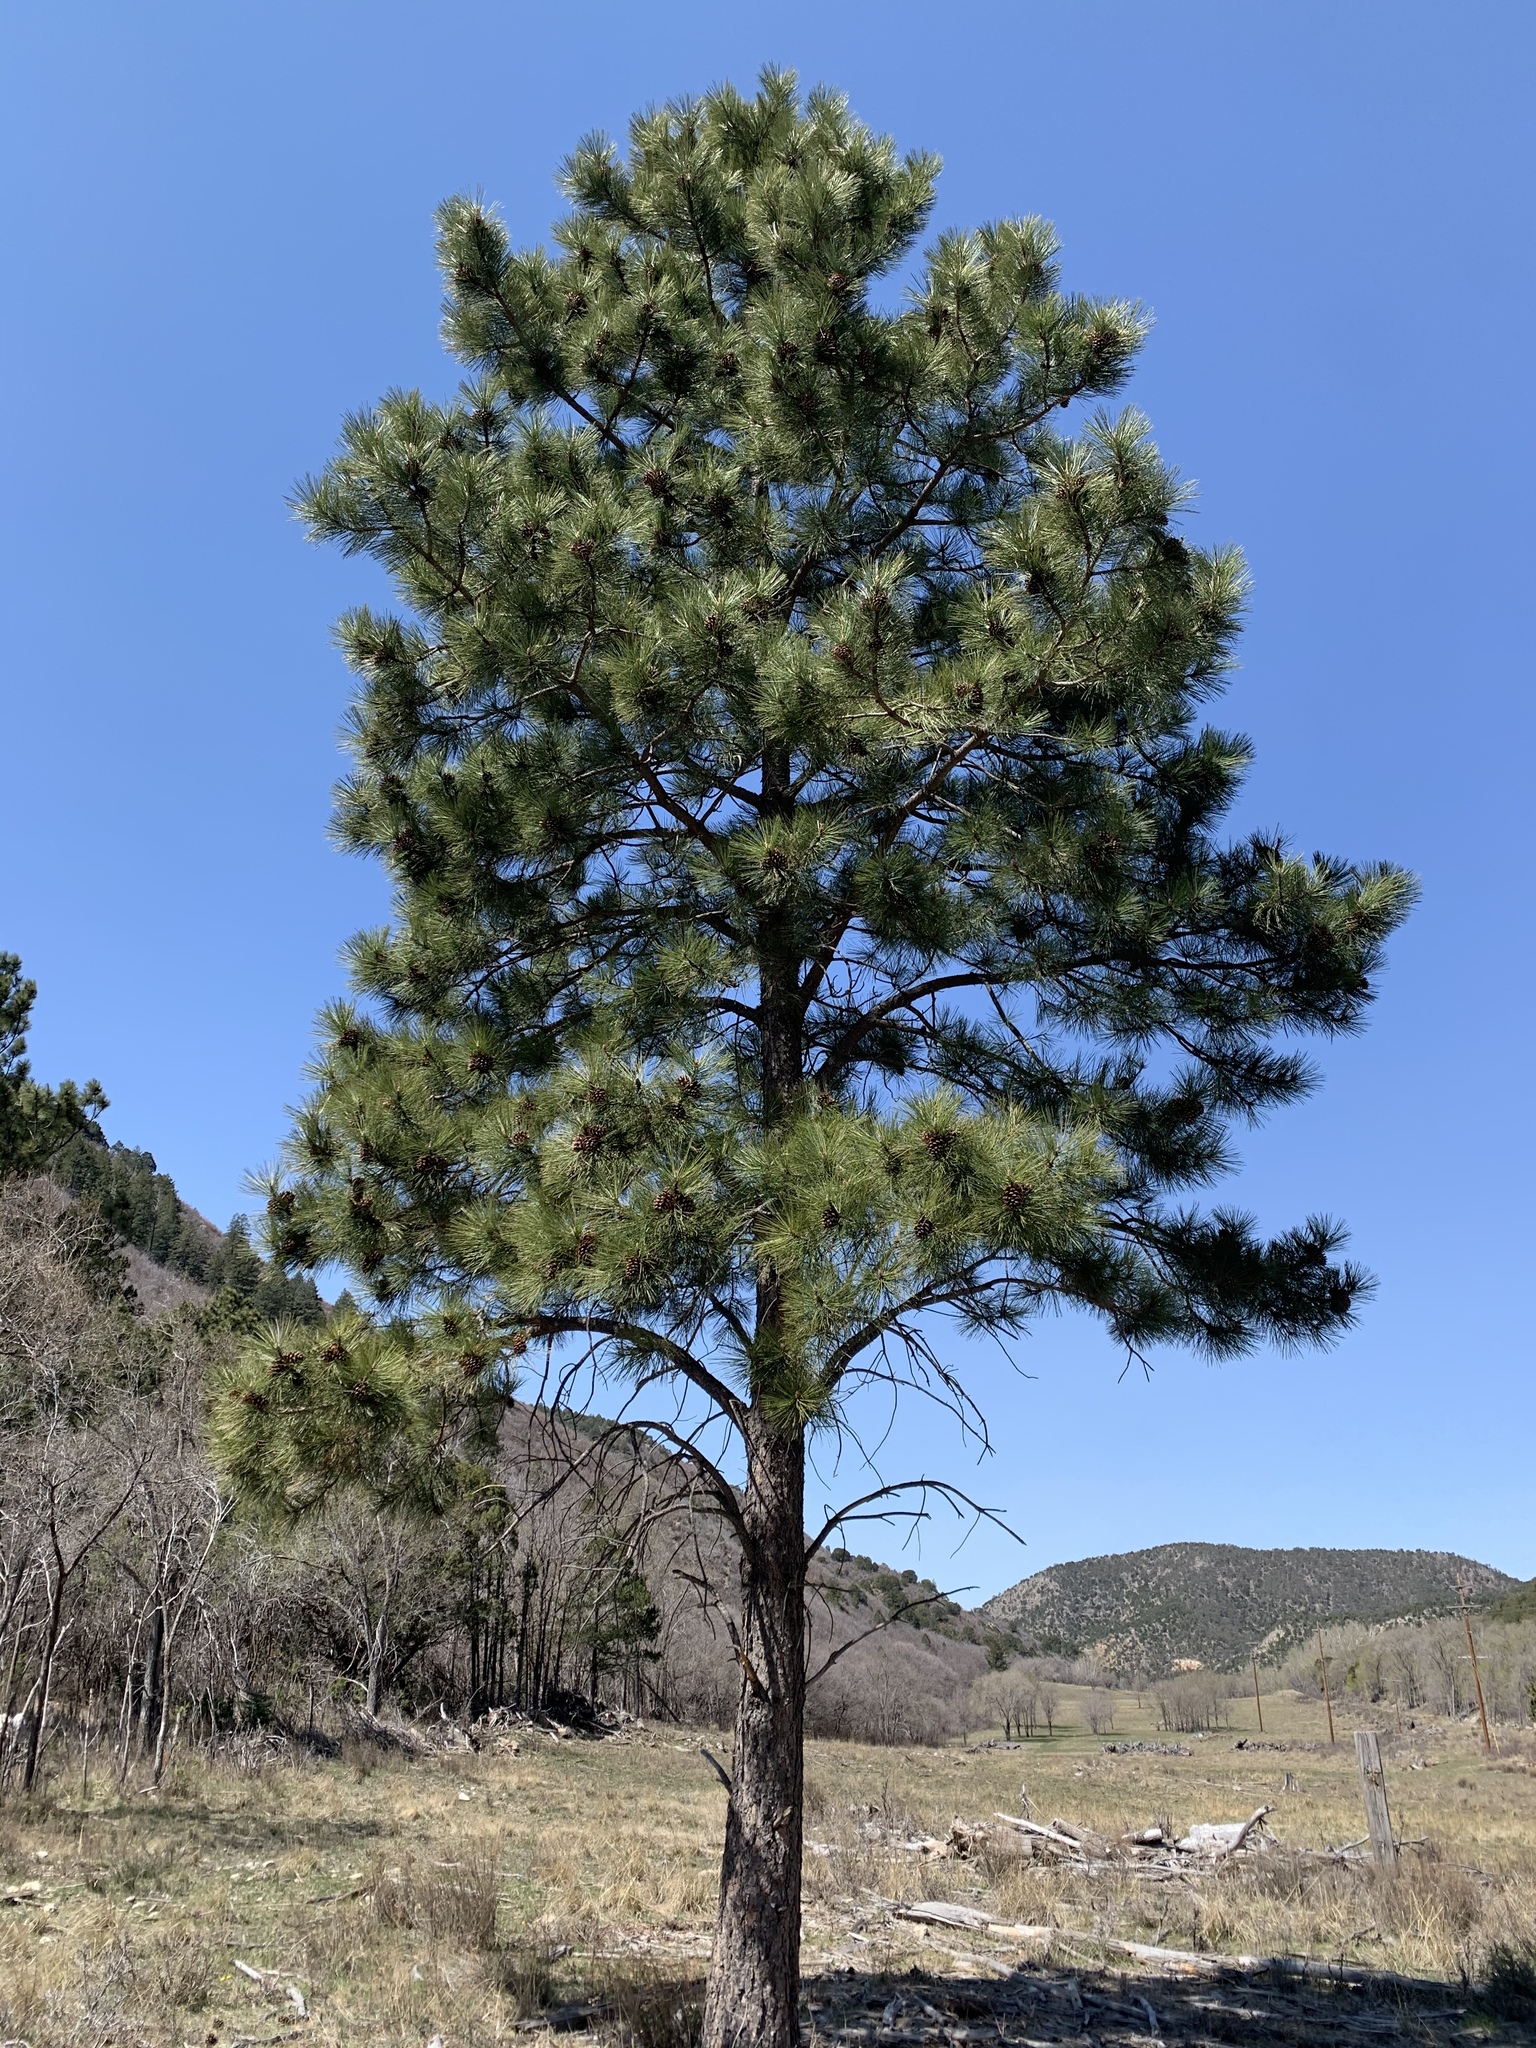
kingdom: Plantae
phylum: Tracheophyta
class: Pinopsida
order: Pinales
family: Pinaceae
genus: Pinus
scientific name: Pinus ponderosa
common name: Western yellow-pine
